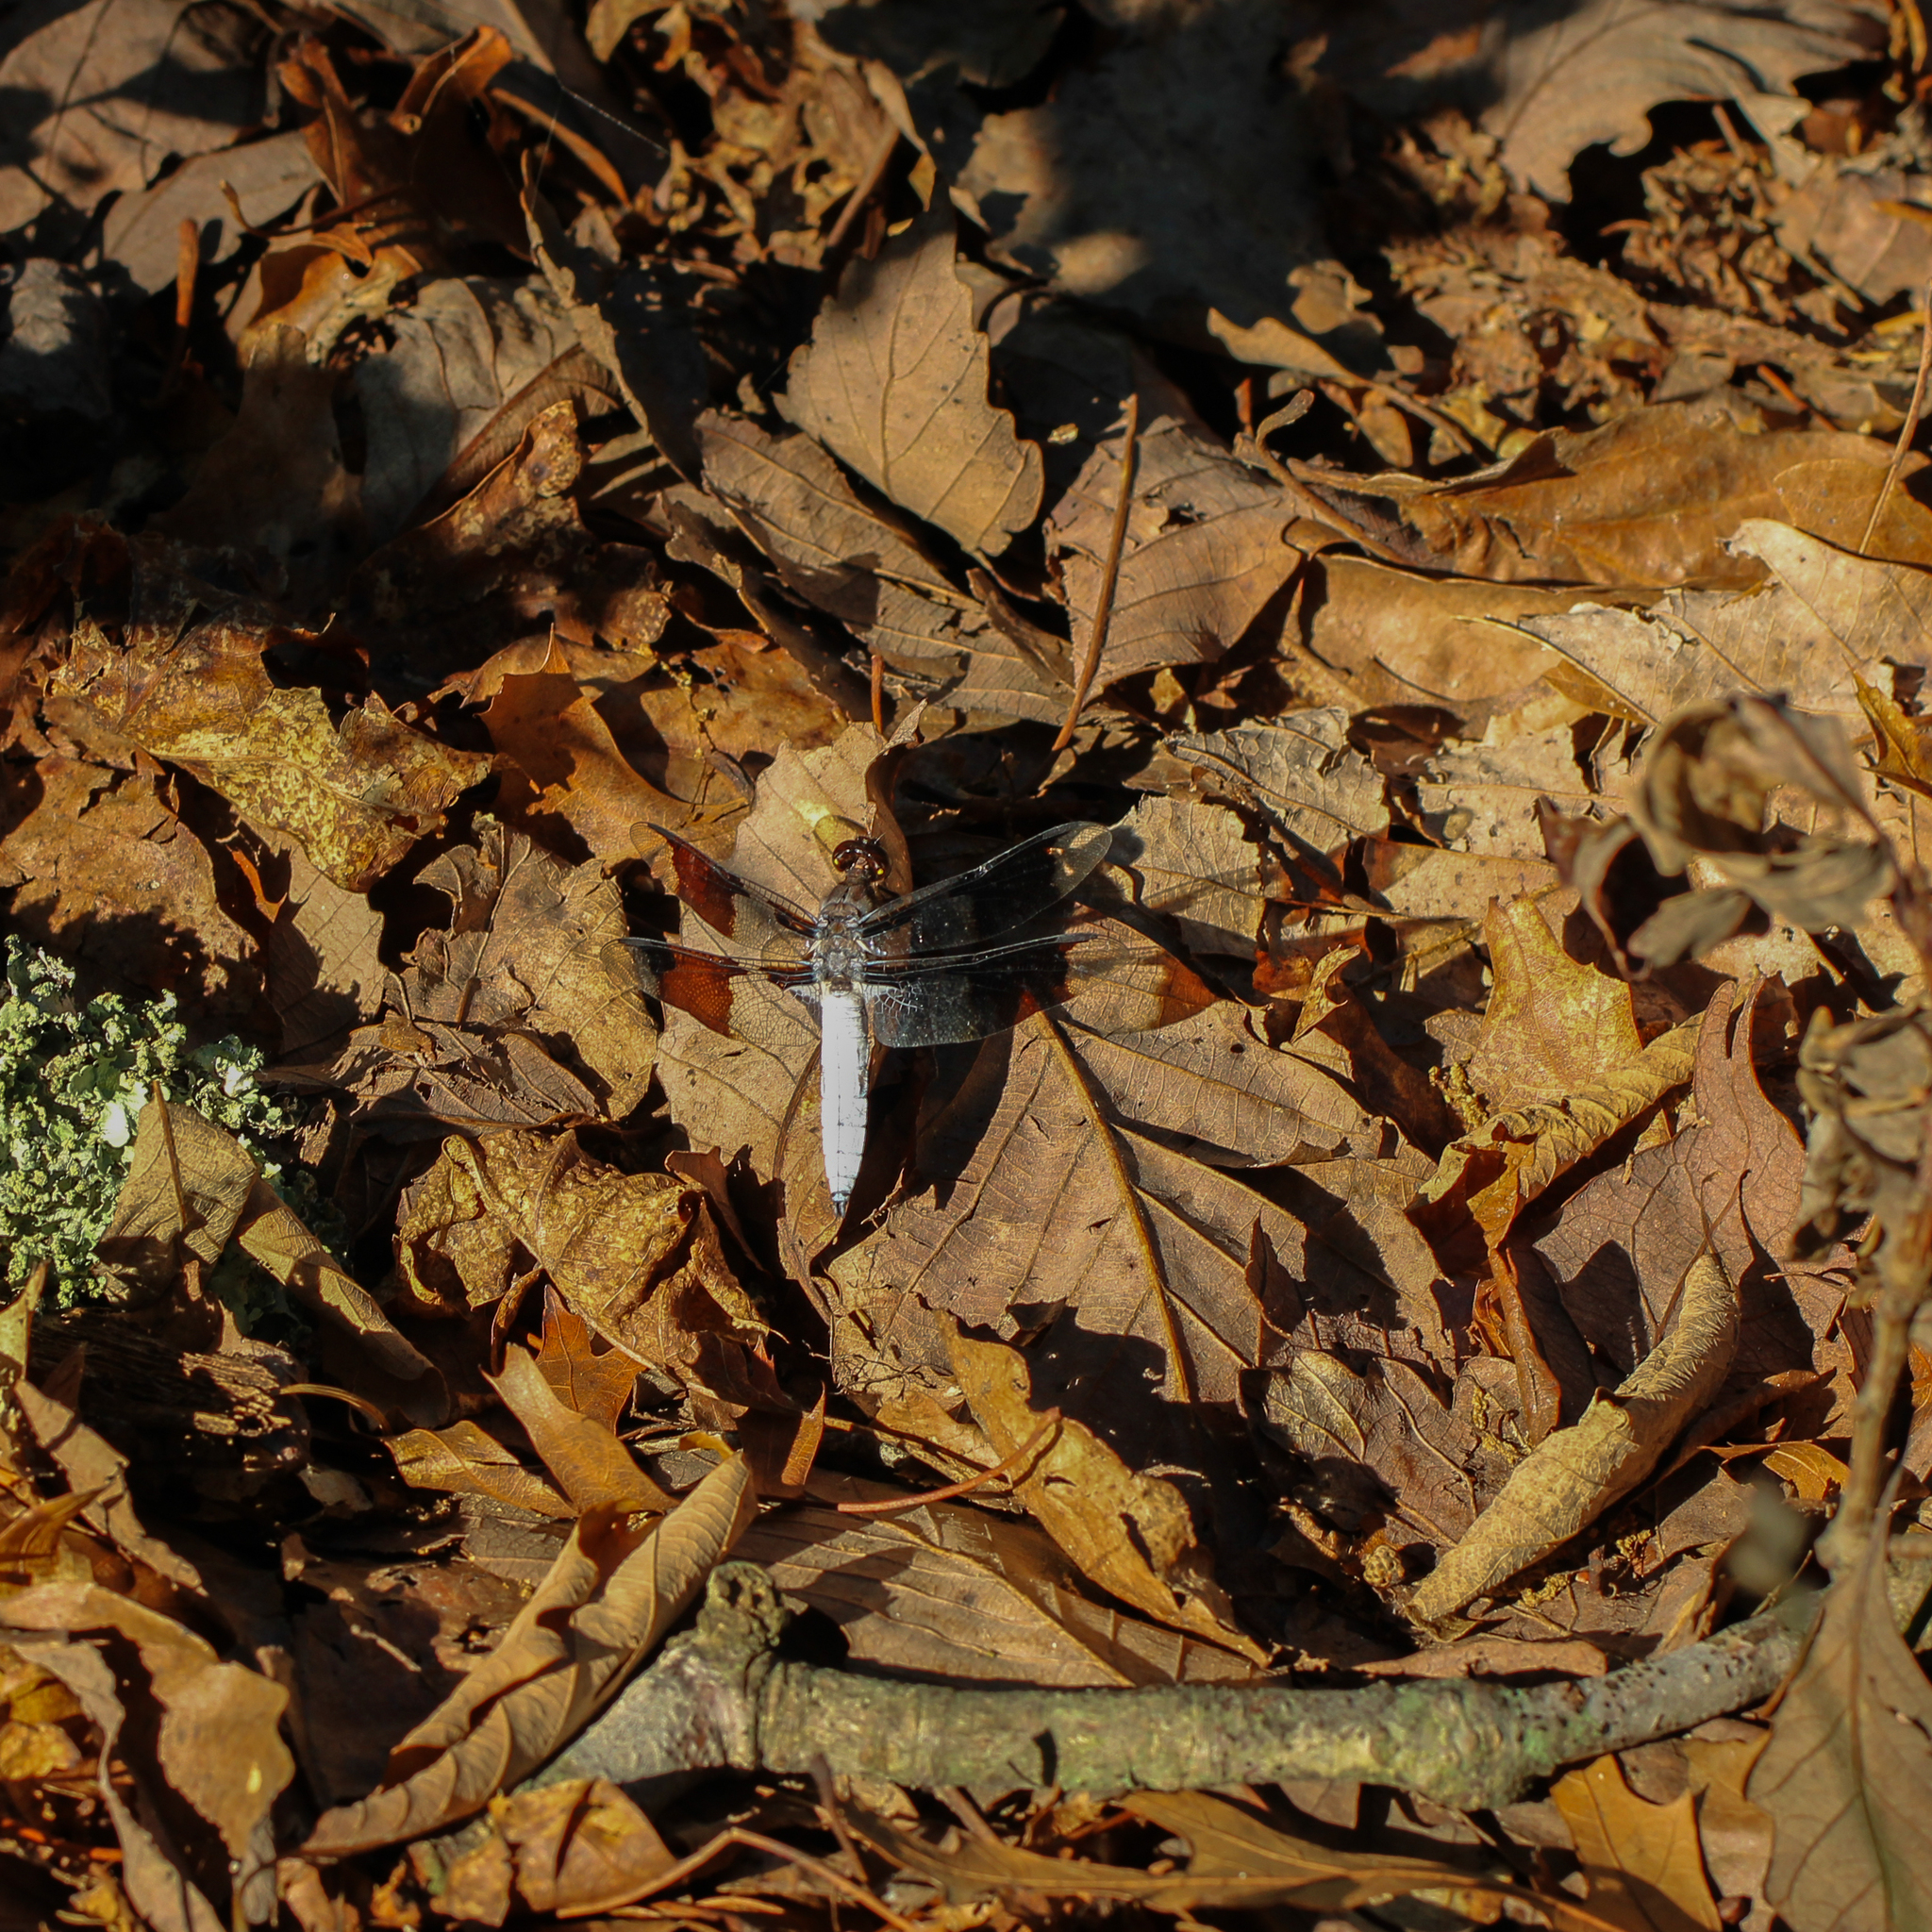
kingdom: Animalia
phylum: Arthropoda
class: Insecta
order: Odonata
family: Libellulidae
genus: Plathemis
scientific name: Plathemis lydia
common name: Common whitetail
